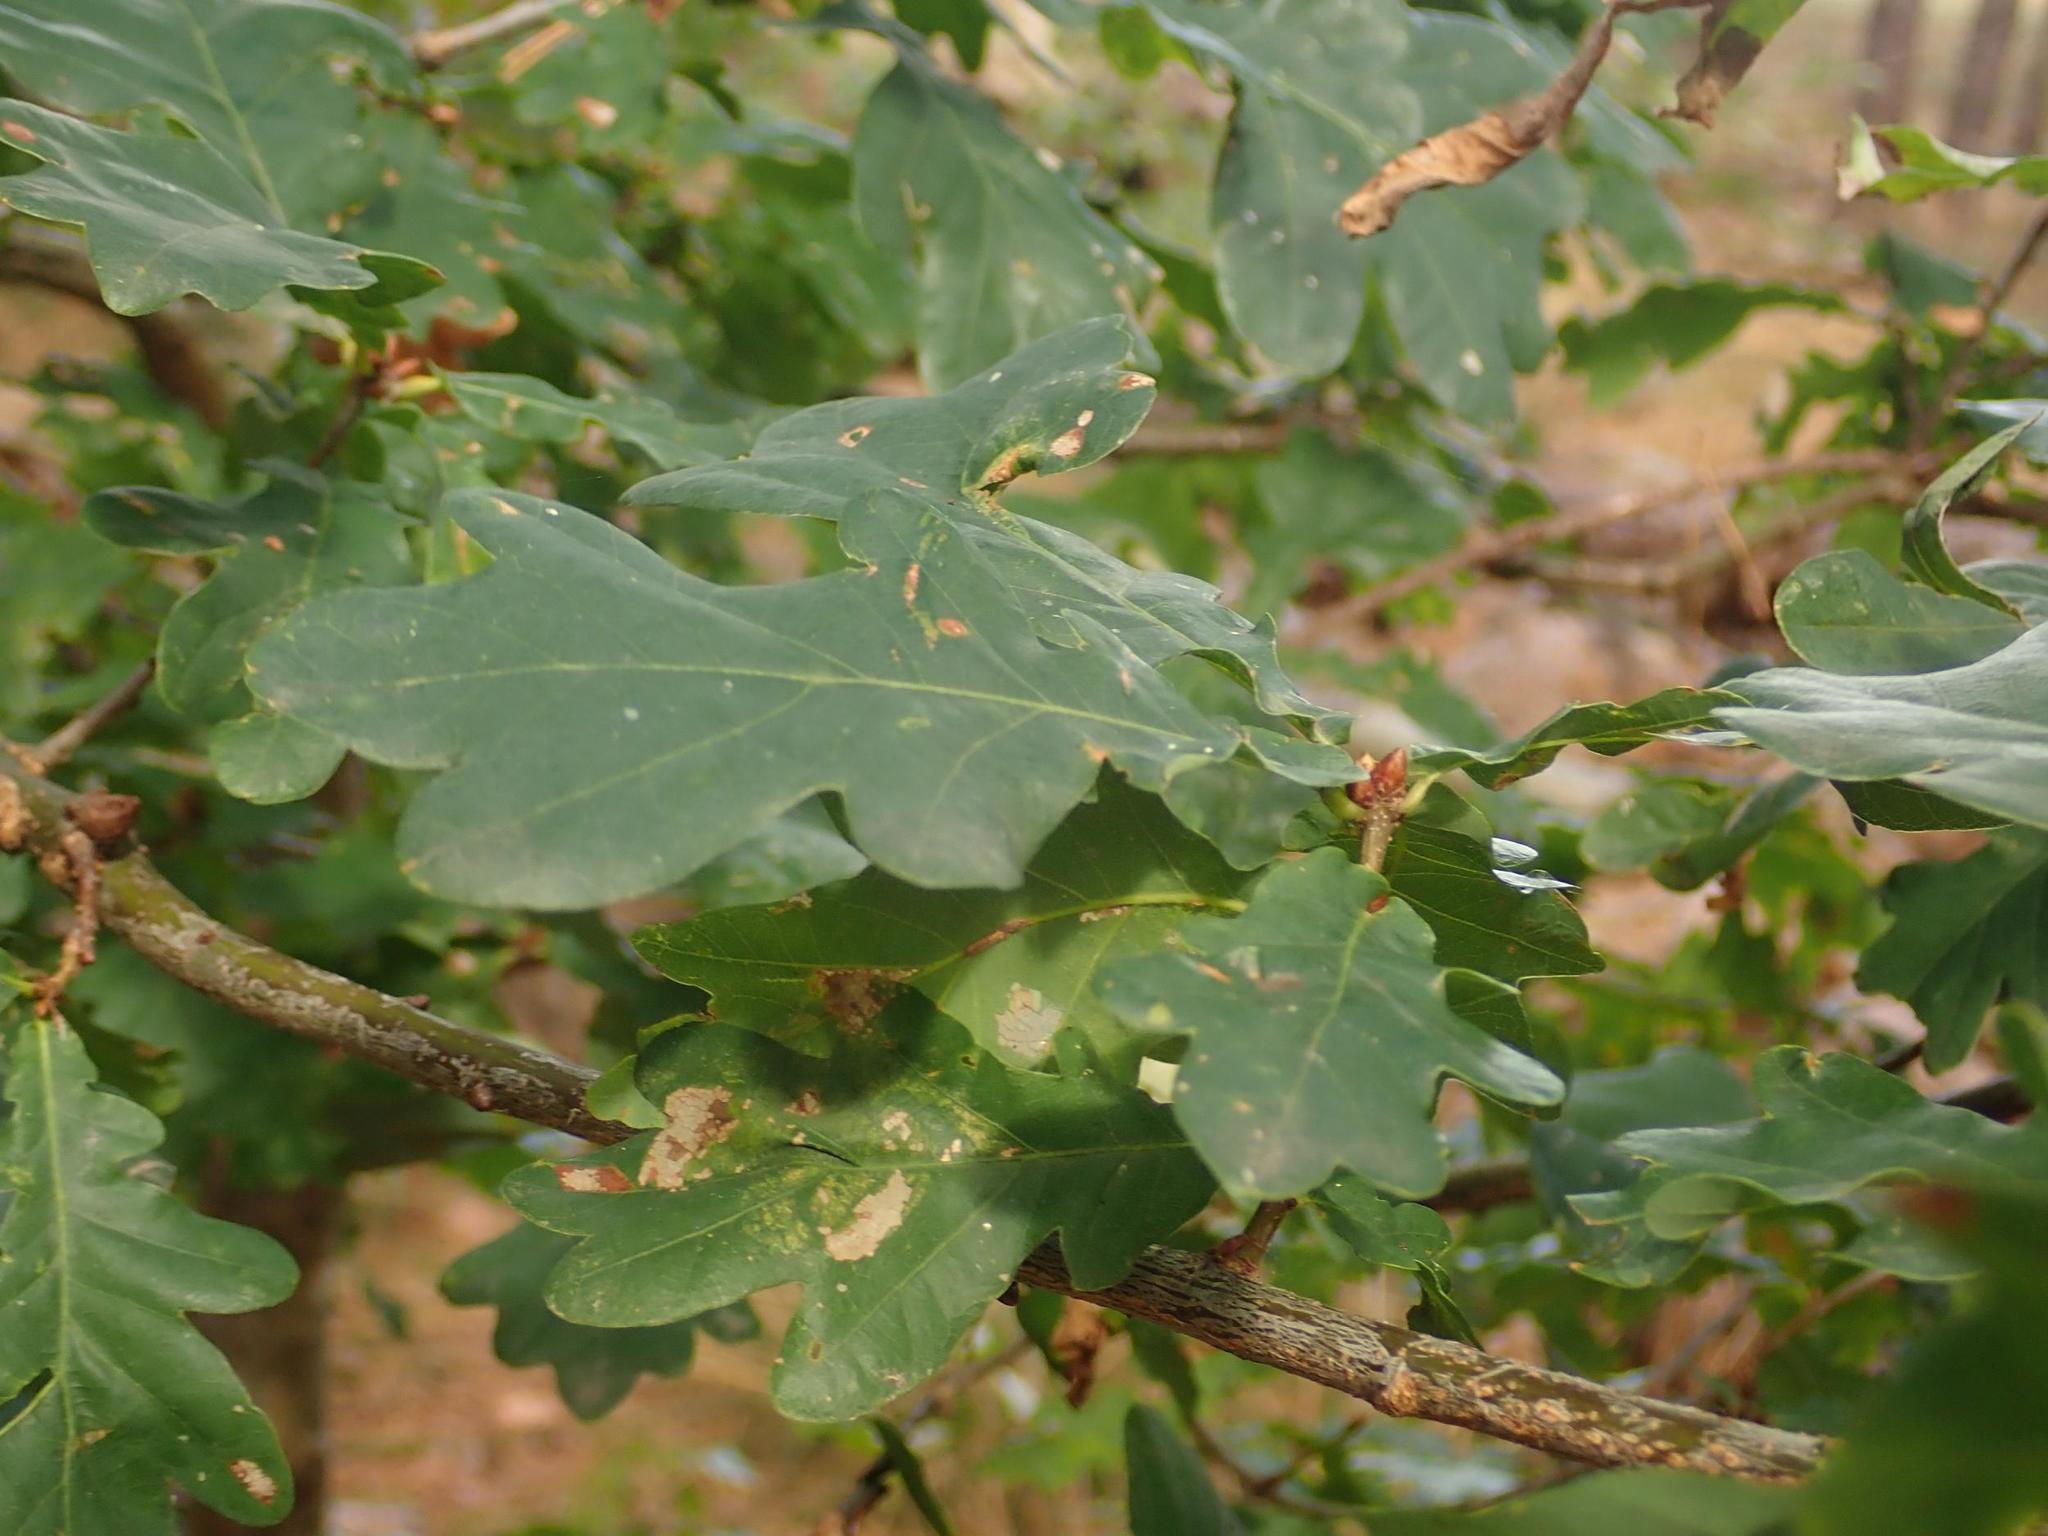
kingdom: Plantae
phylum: Tracheophyta
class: Magnoliopsida
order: Fagales
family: Fagaceae
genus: Quercus
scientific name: Quercus robur
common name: Pedunculate oak
